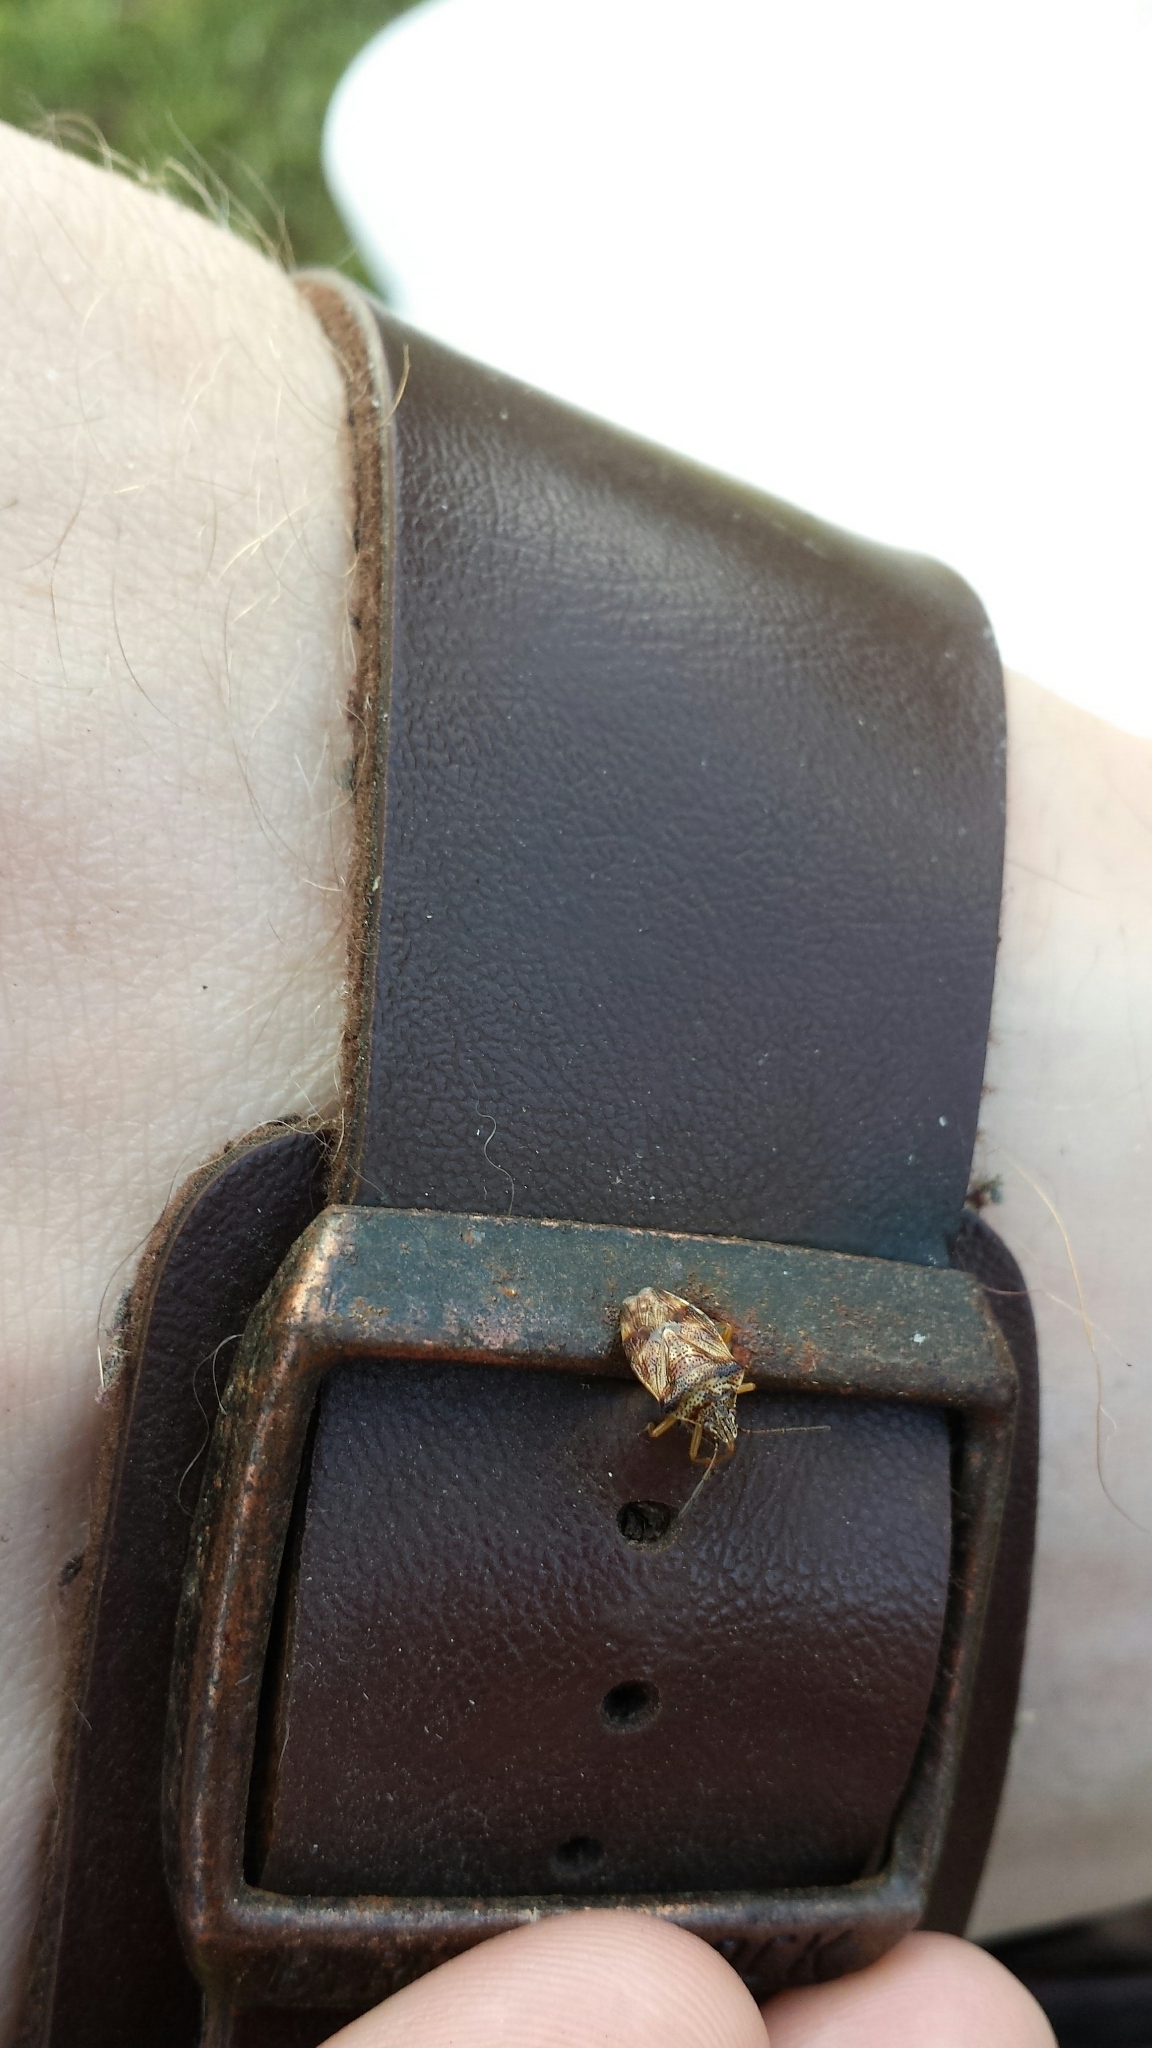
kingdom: Animalia
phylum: Arthropoda
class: Insecta
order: Hemiptera
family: Acanthosomatidae
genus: Elasmucha
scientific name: Elasmucha lateralis
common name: Shield bug
